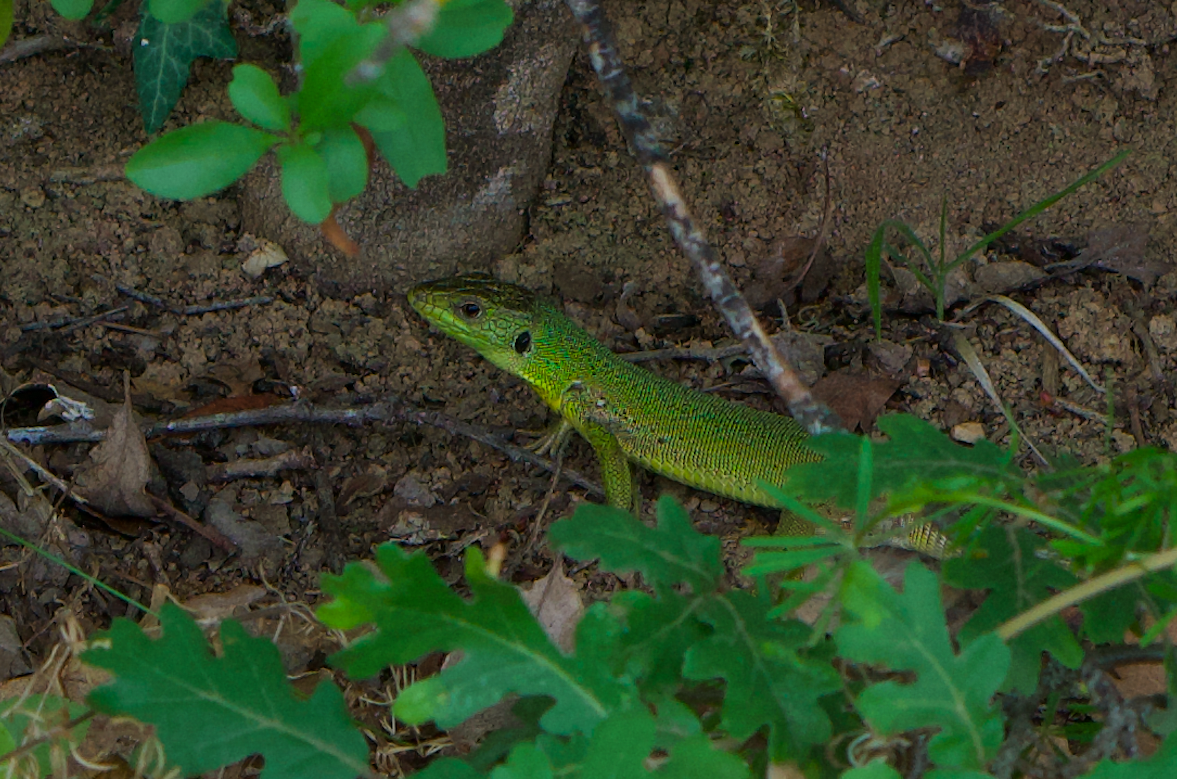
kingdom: Animalia
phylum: Chordata
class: Squamata
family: Lacertidae
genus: Lacerta
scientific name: Lacerta trilineata
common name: Balkan green lizard
